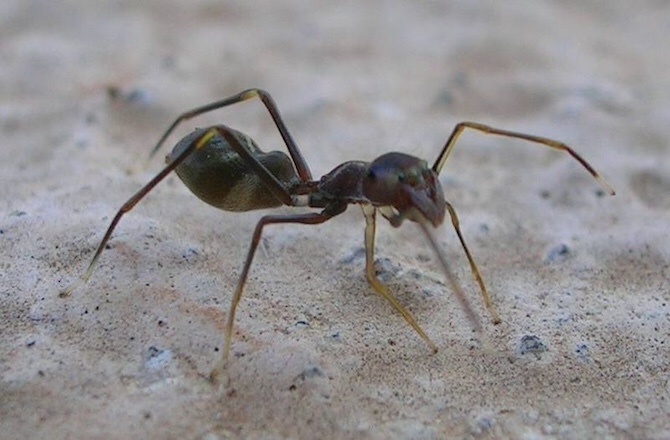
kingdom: Animalia
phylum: Arthropoda
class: Arachnida
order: Araneae
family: Salticidae
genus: Synemosyna
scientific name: Synemosyna formica
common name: Slender ant-mimic jumping spider
